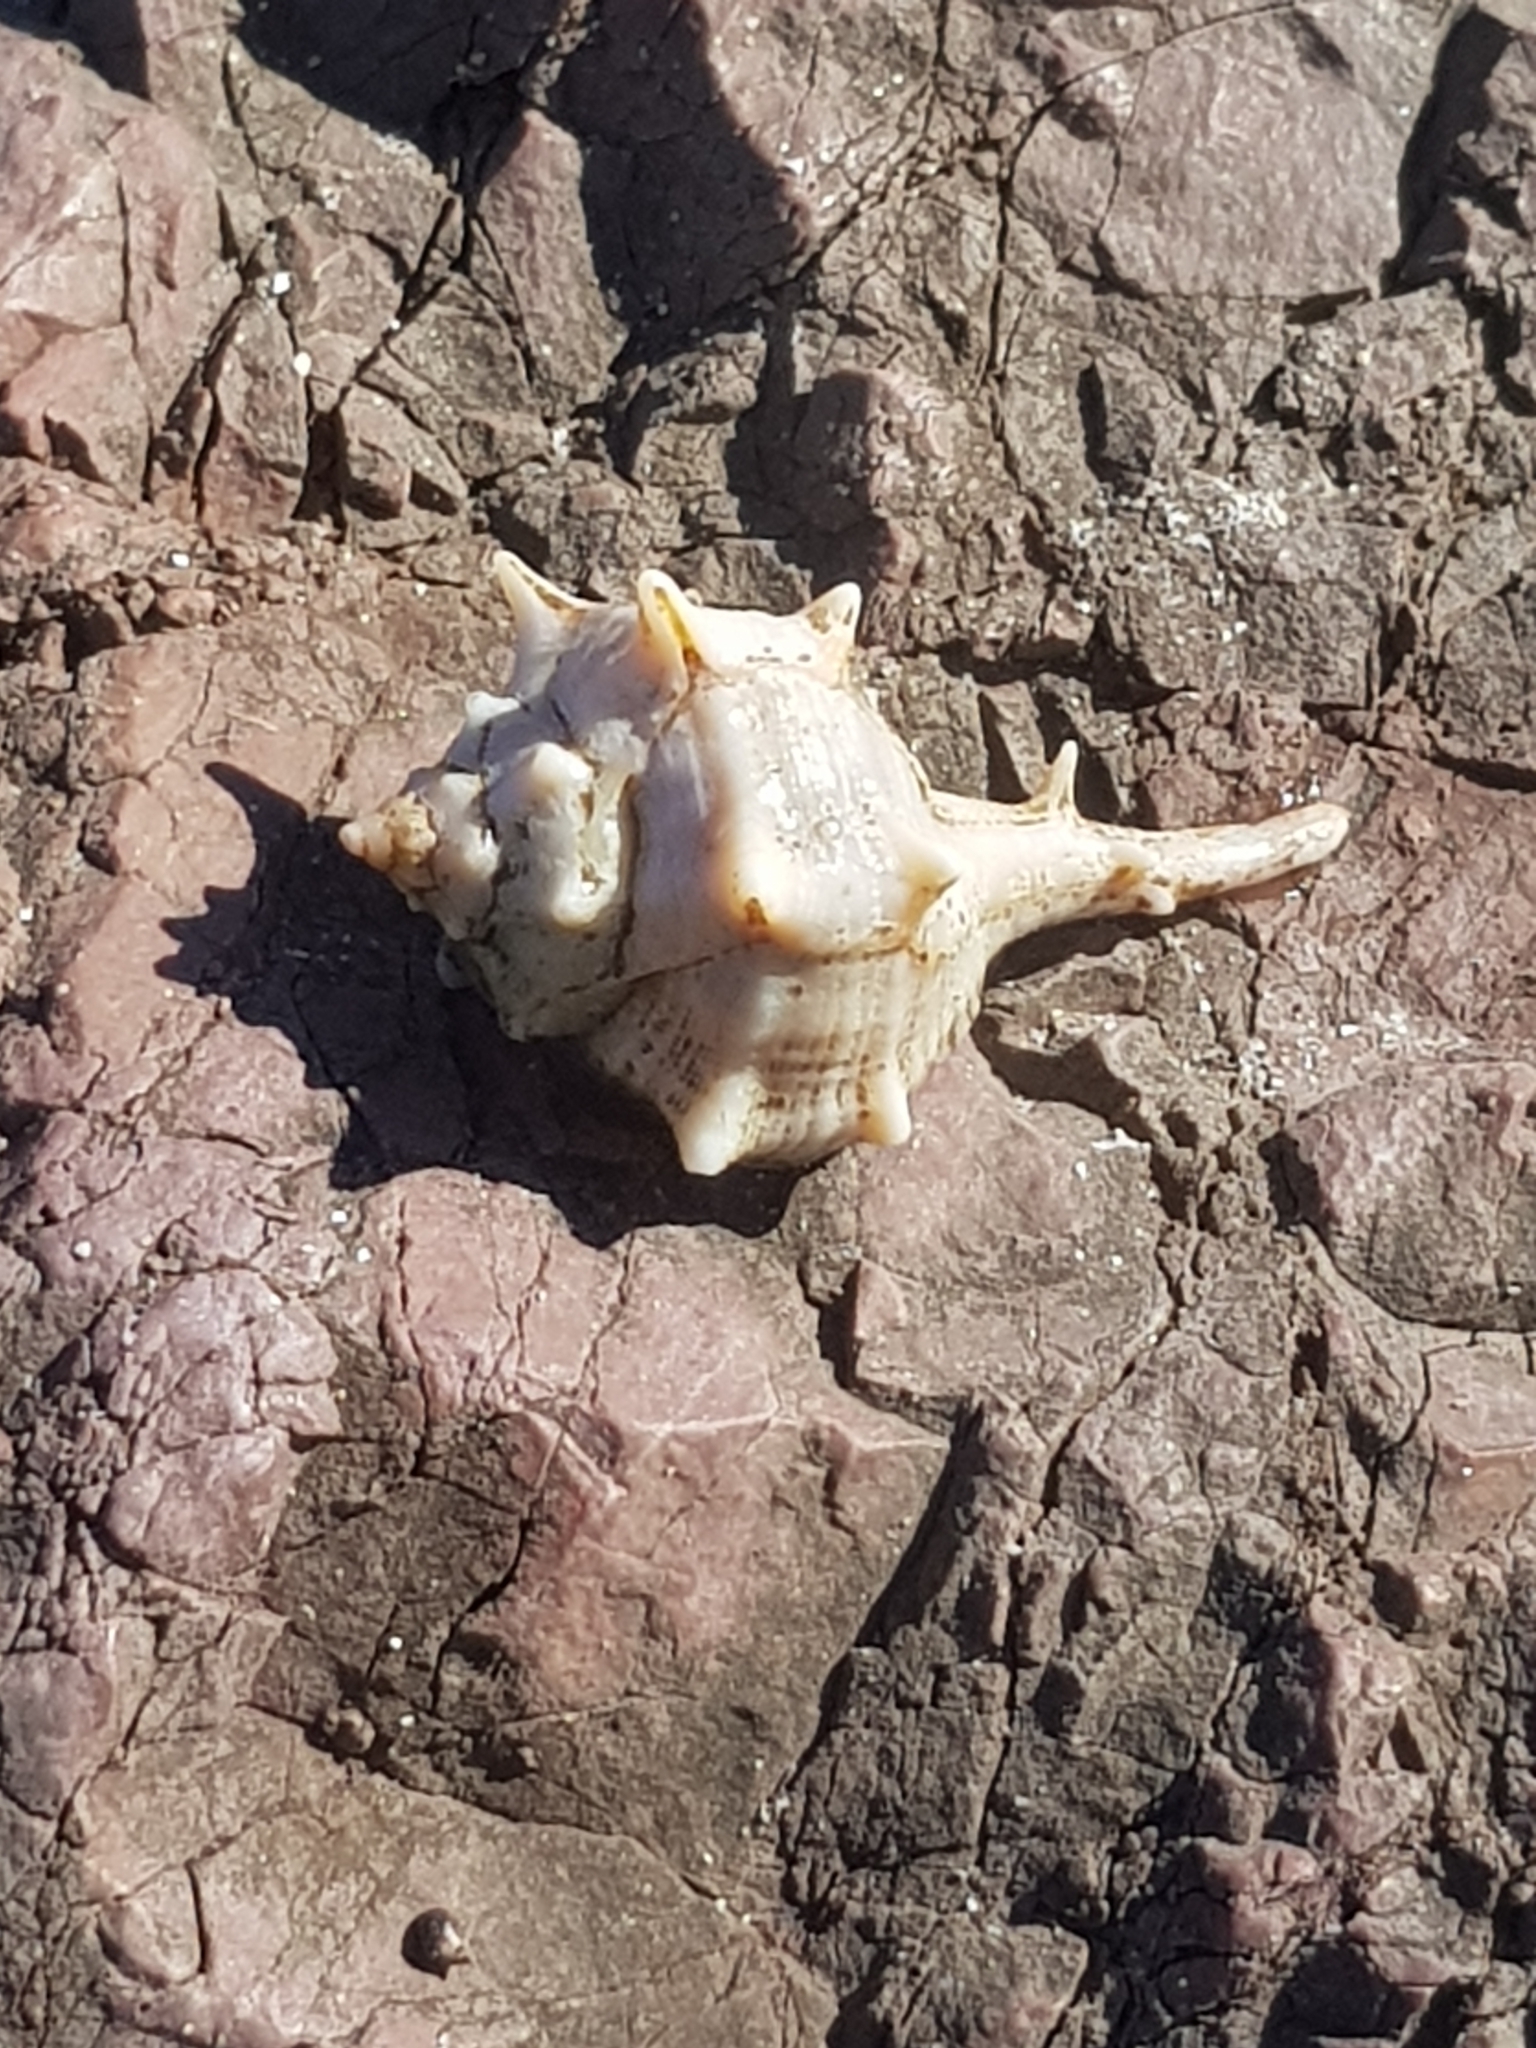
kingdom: Animalia
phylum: Mollusca
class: Gastropoda
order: Neogastropoda
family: Muricidae
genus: Bolinus
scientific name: Bolinus brandaris
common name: Dye murex
